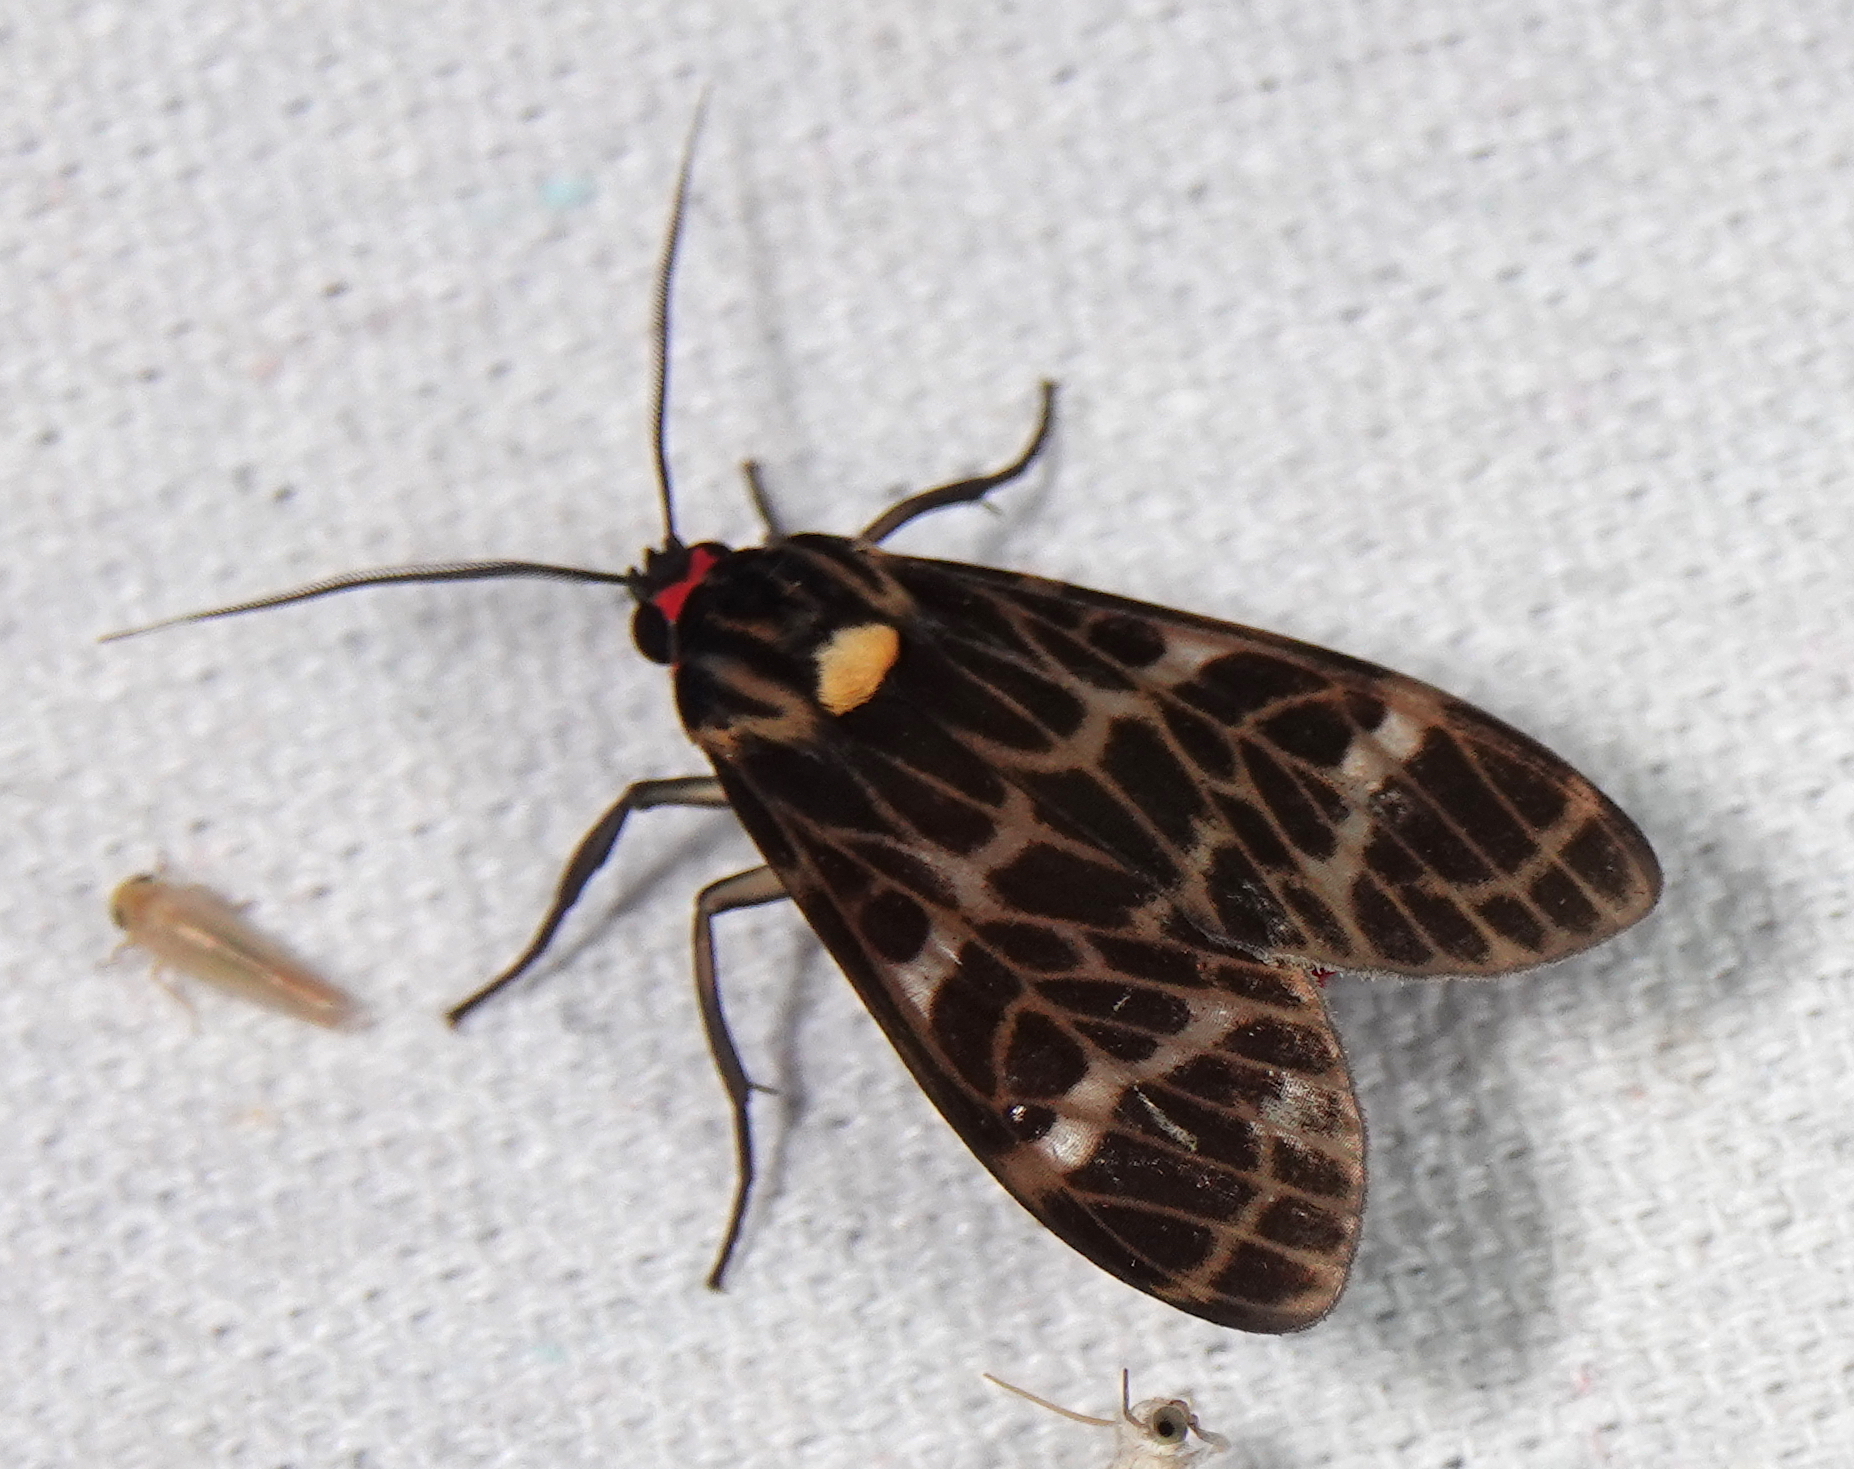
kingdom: Animalia
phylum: Arthropoda
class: Insecta
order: Lepidoptera
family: Erebidae
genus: Heliura
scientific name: Heliura flavopunctata
